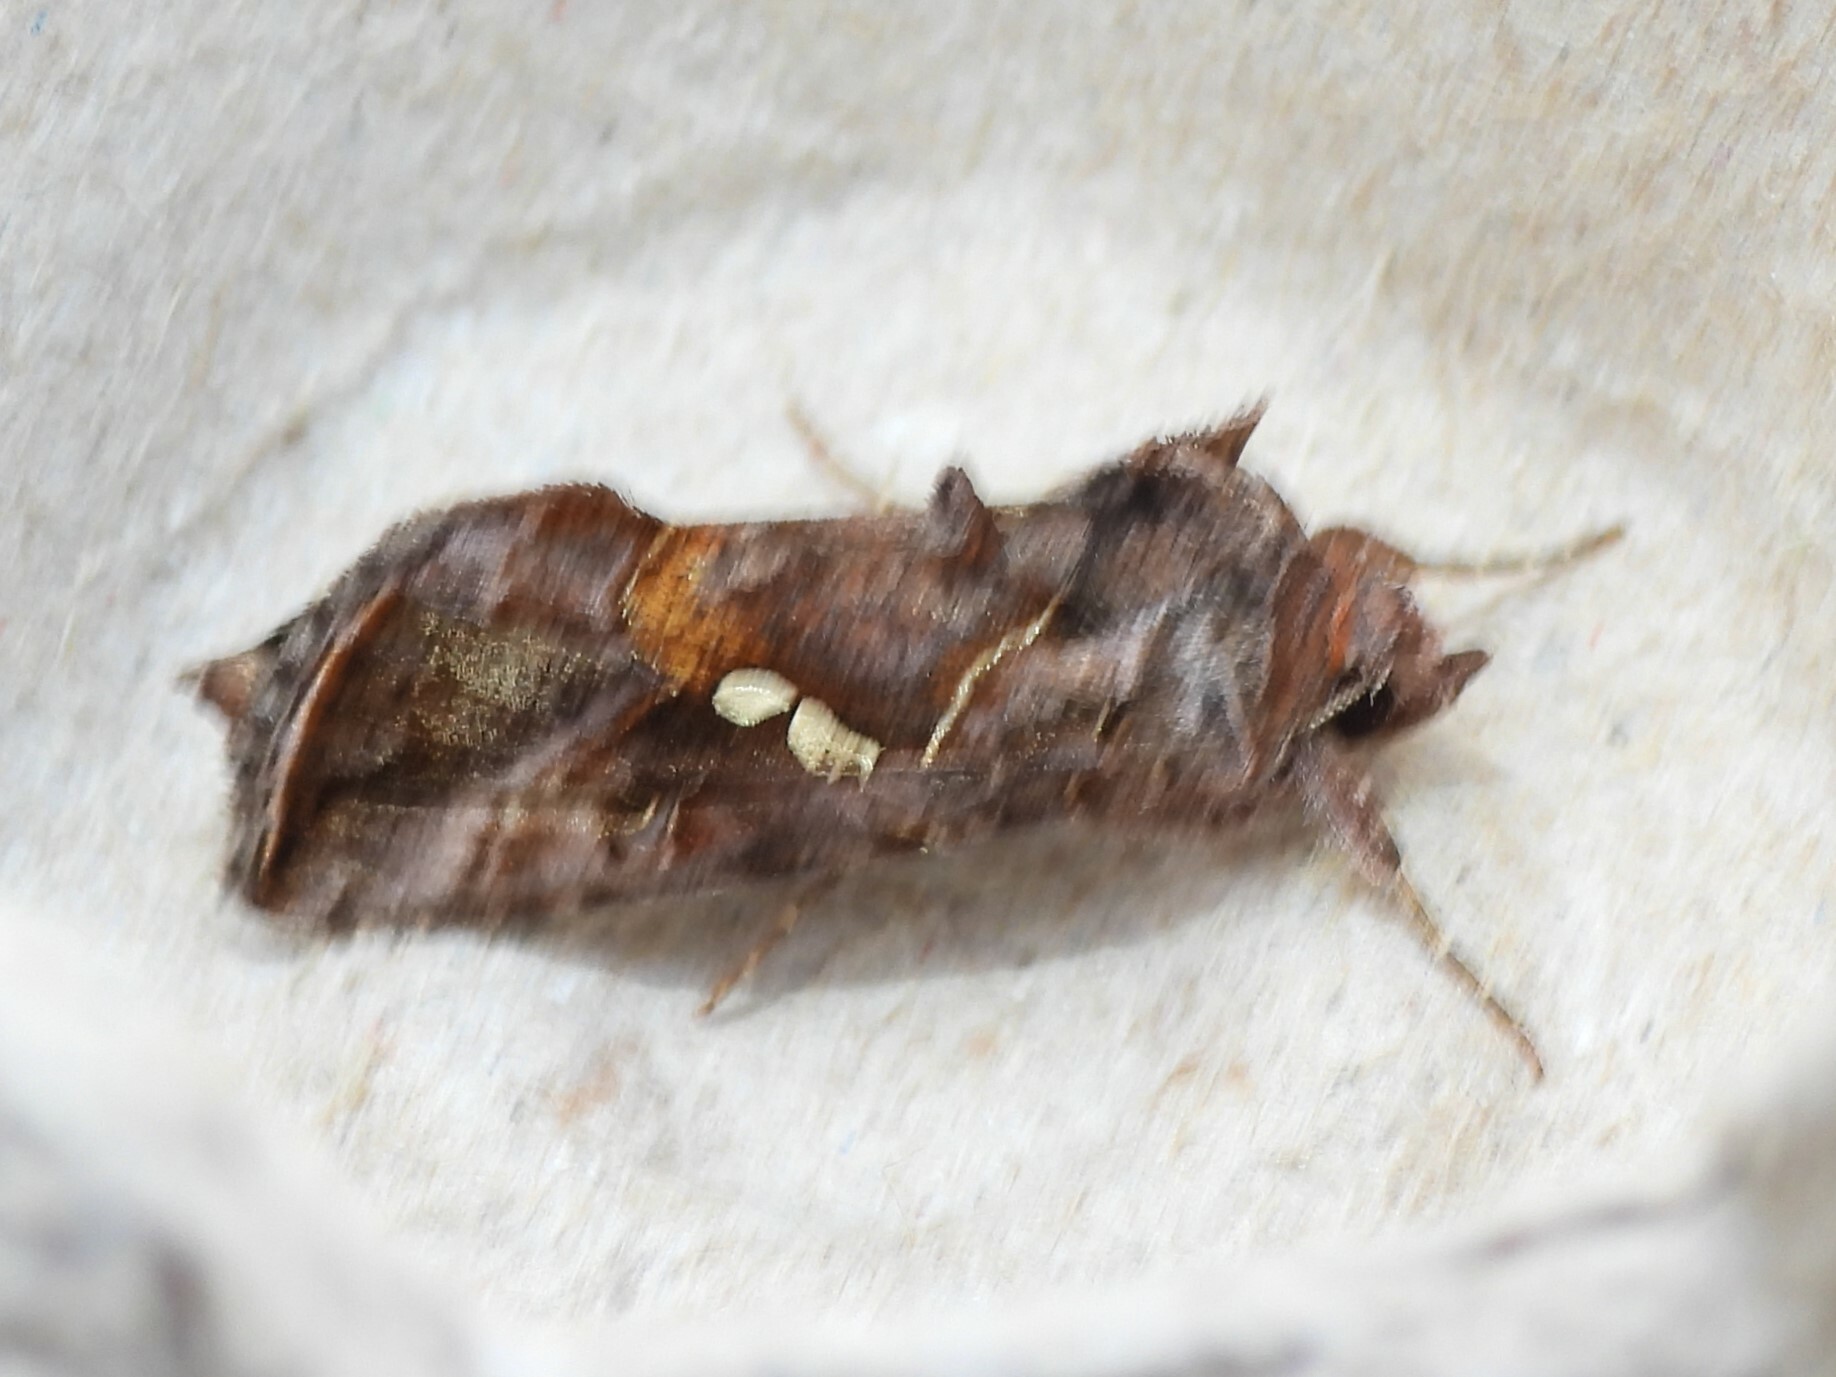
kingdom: Animalia
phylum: Arthropoda
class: Insecta
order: Lepidoptera
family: Noctuidae
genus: Autographa
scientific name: Autographa precationis
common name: Common looper moth
